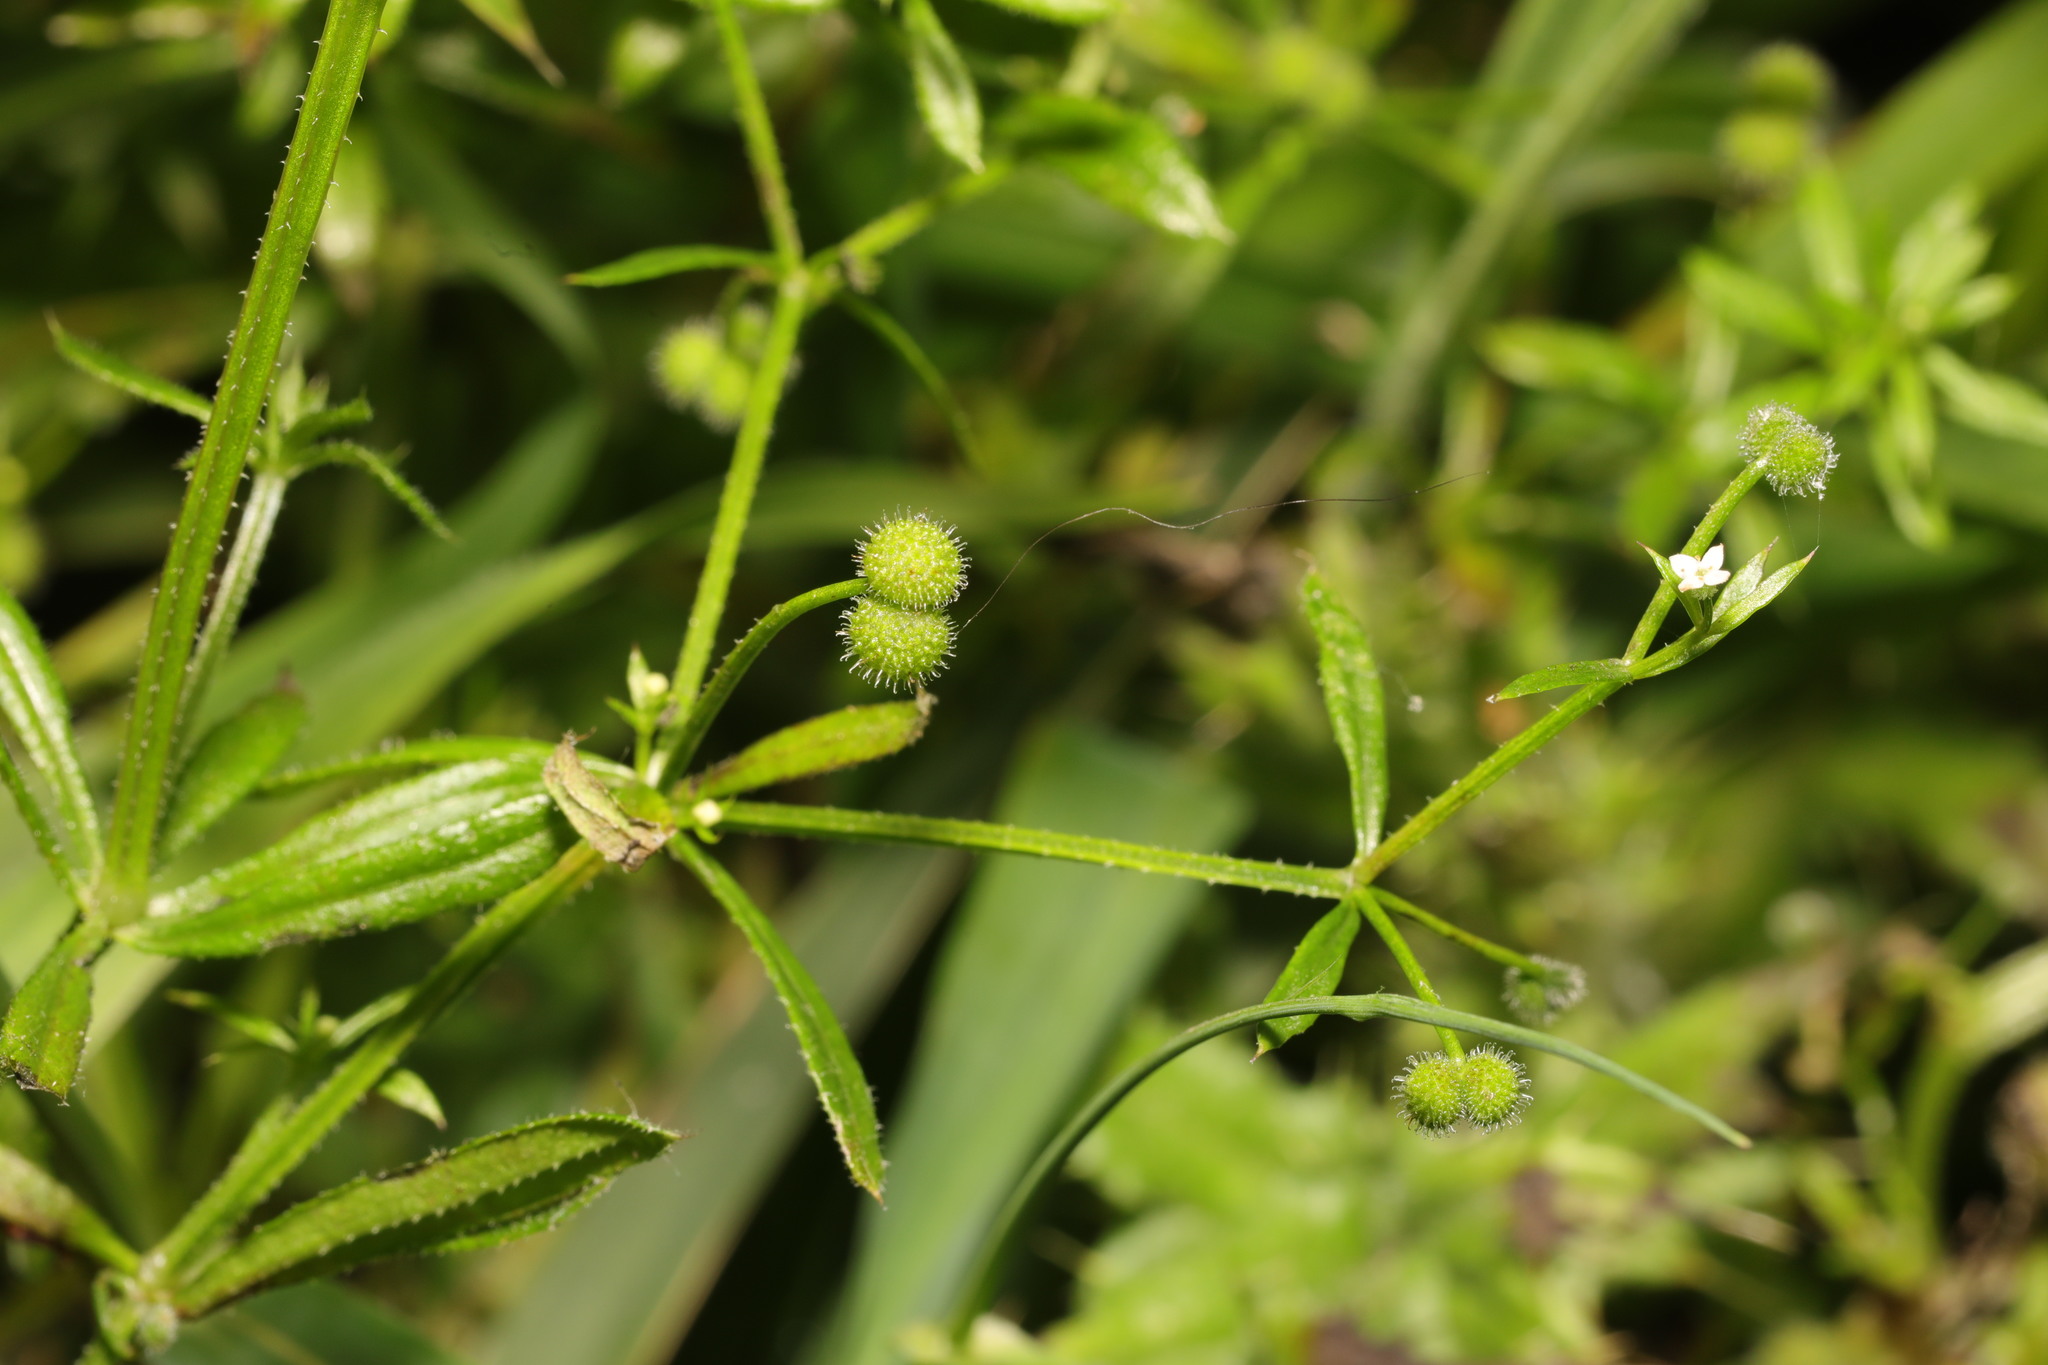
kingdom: Plantae
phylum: Tracheophyta
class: Magnoliopsida
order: Gentianales
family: Rubiaceae
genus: Galium
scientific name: Galium aparine
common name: Cleavers
